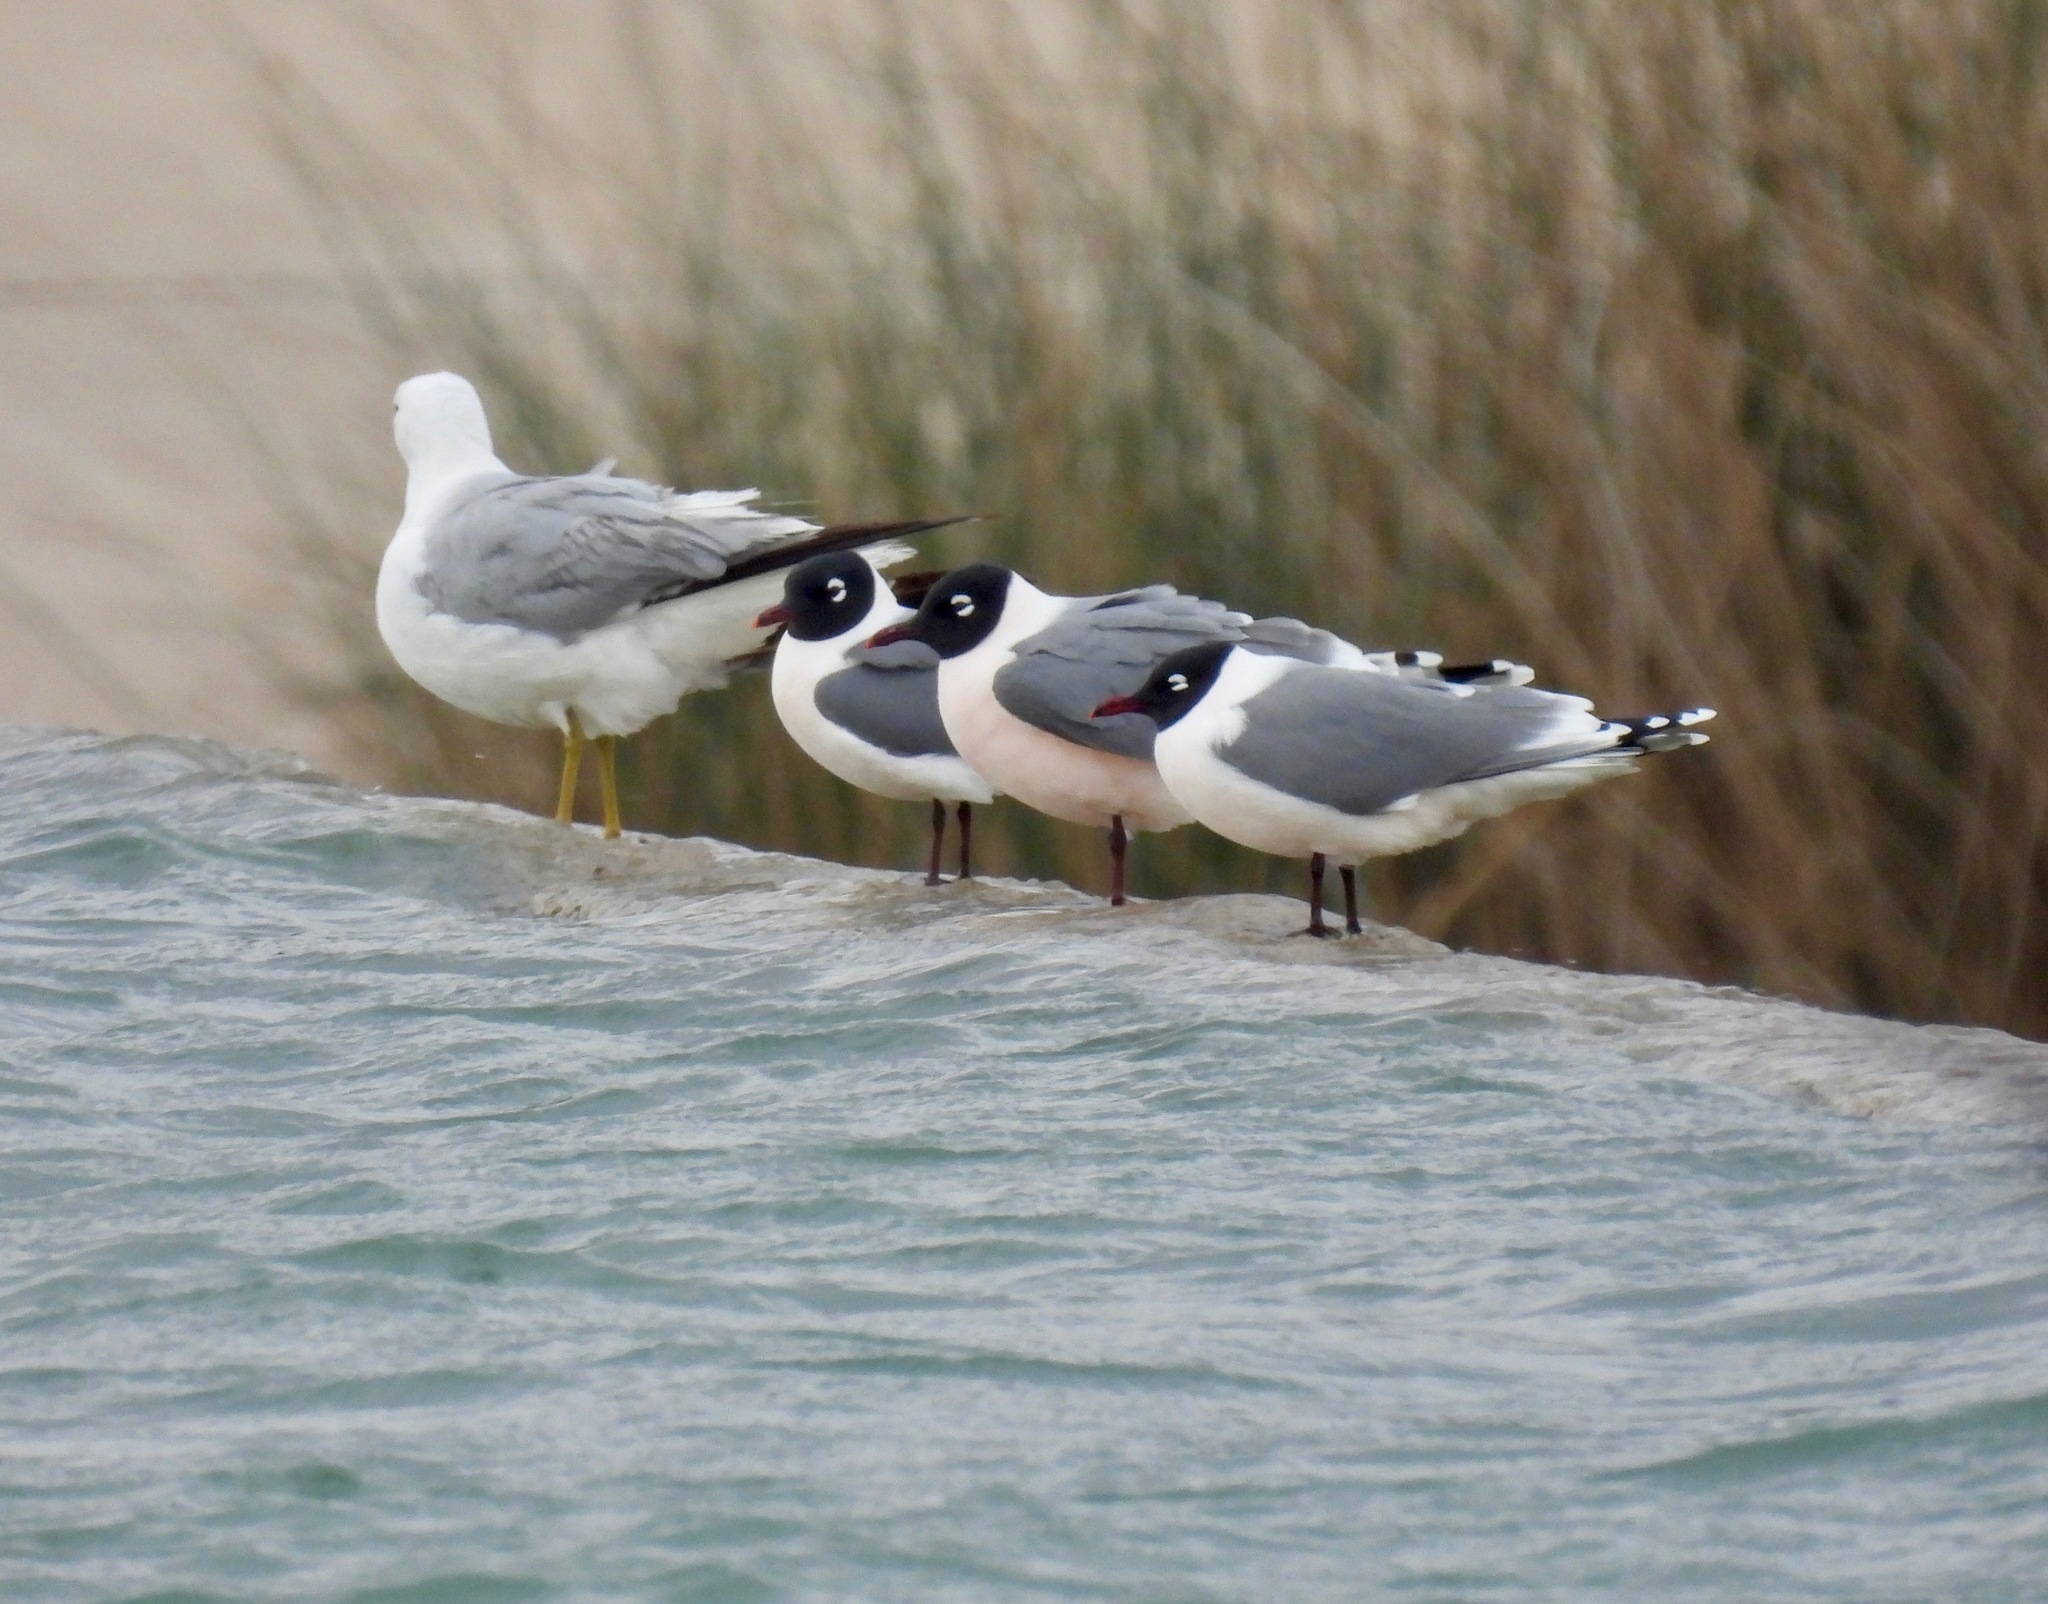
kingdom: Animalia
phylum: Chordata
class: Aves
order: Charadriiformes
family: Laridae
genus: Leucophaeus
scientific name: Leucophaeus pipixcan
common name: Franklin's gull
